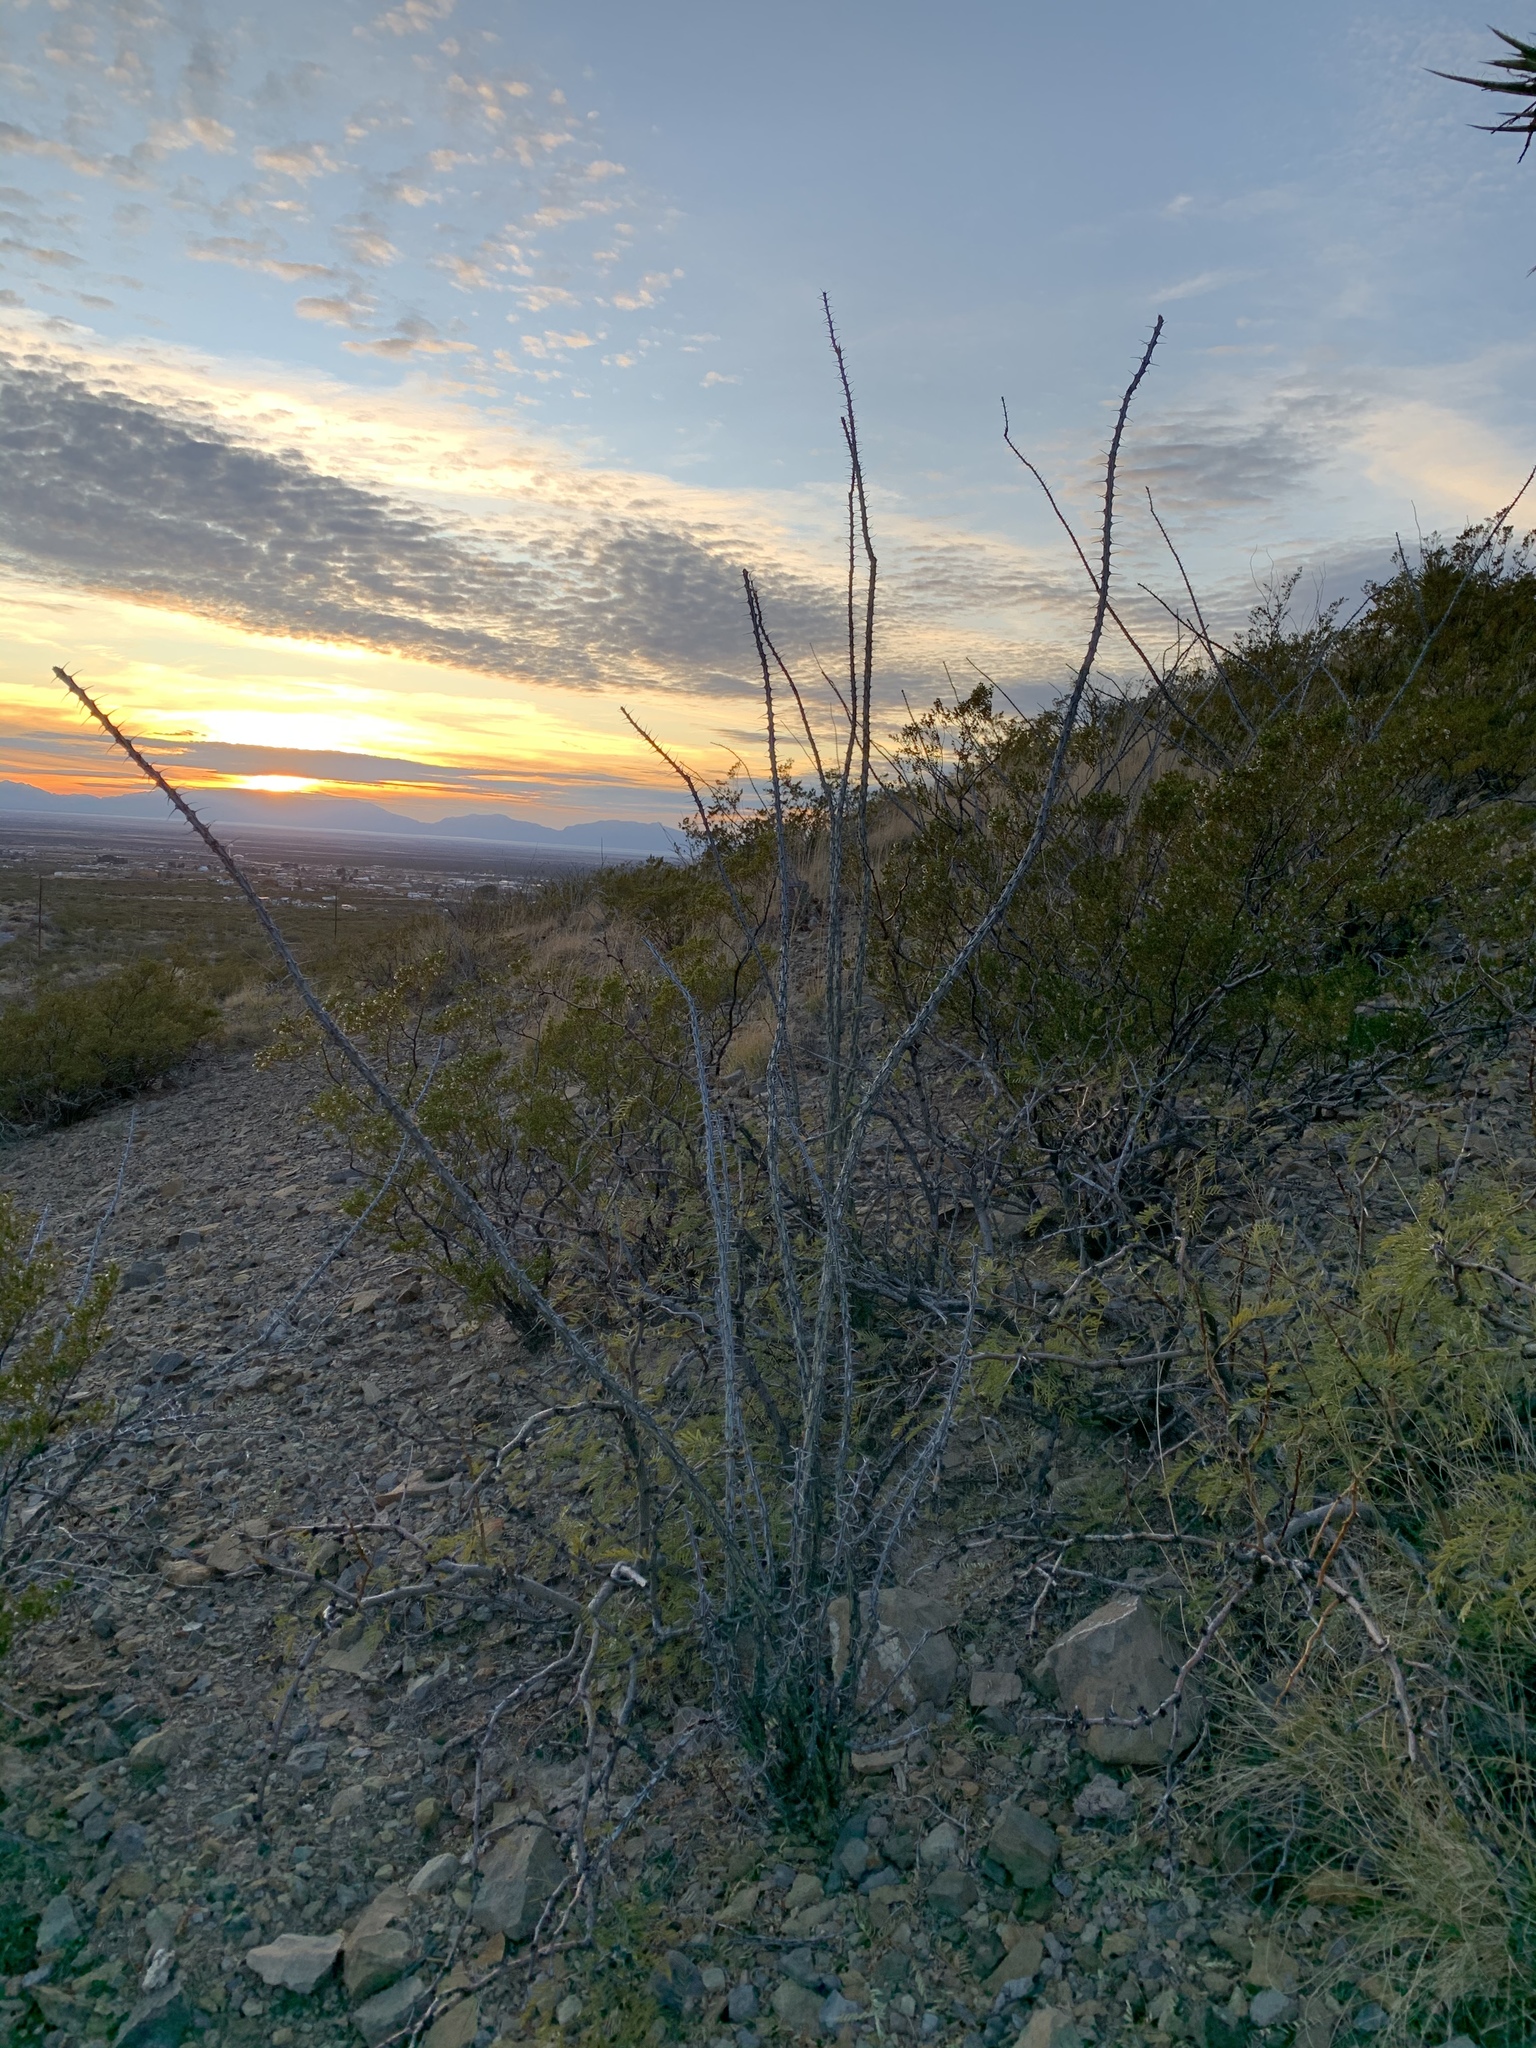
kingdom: Plantae
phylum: Tracheophyta
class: Magnoliopsida
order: Ericales
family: Fouquieriaceae
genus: Fouquieria
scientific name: Fouquieria splendens
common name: Vine-cactus
